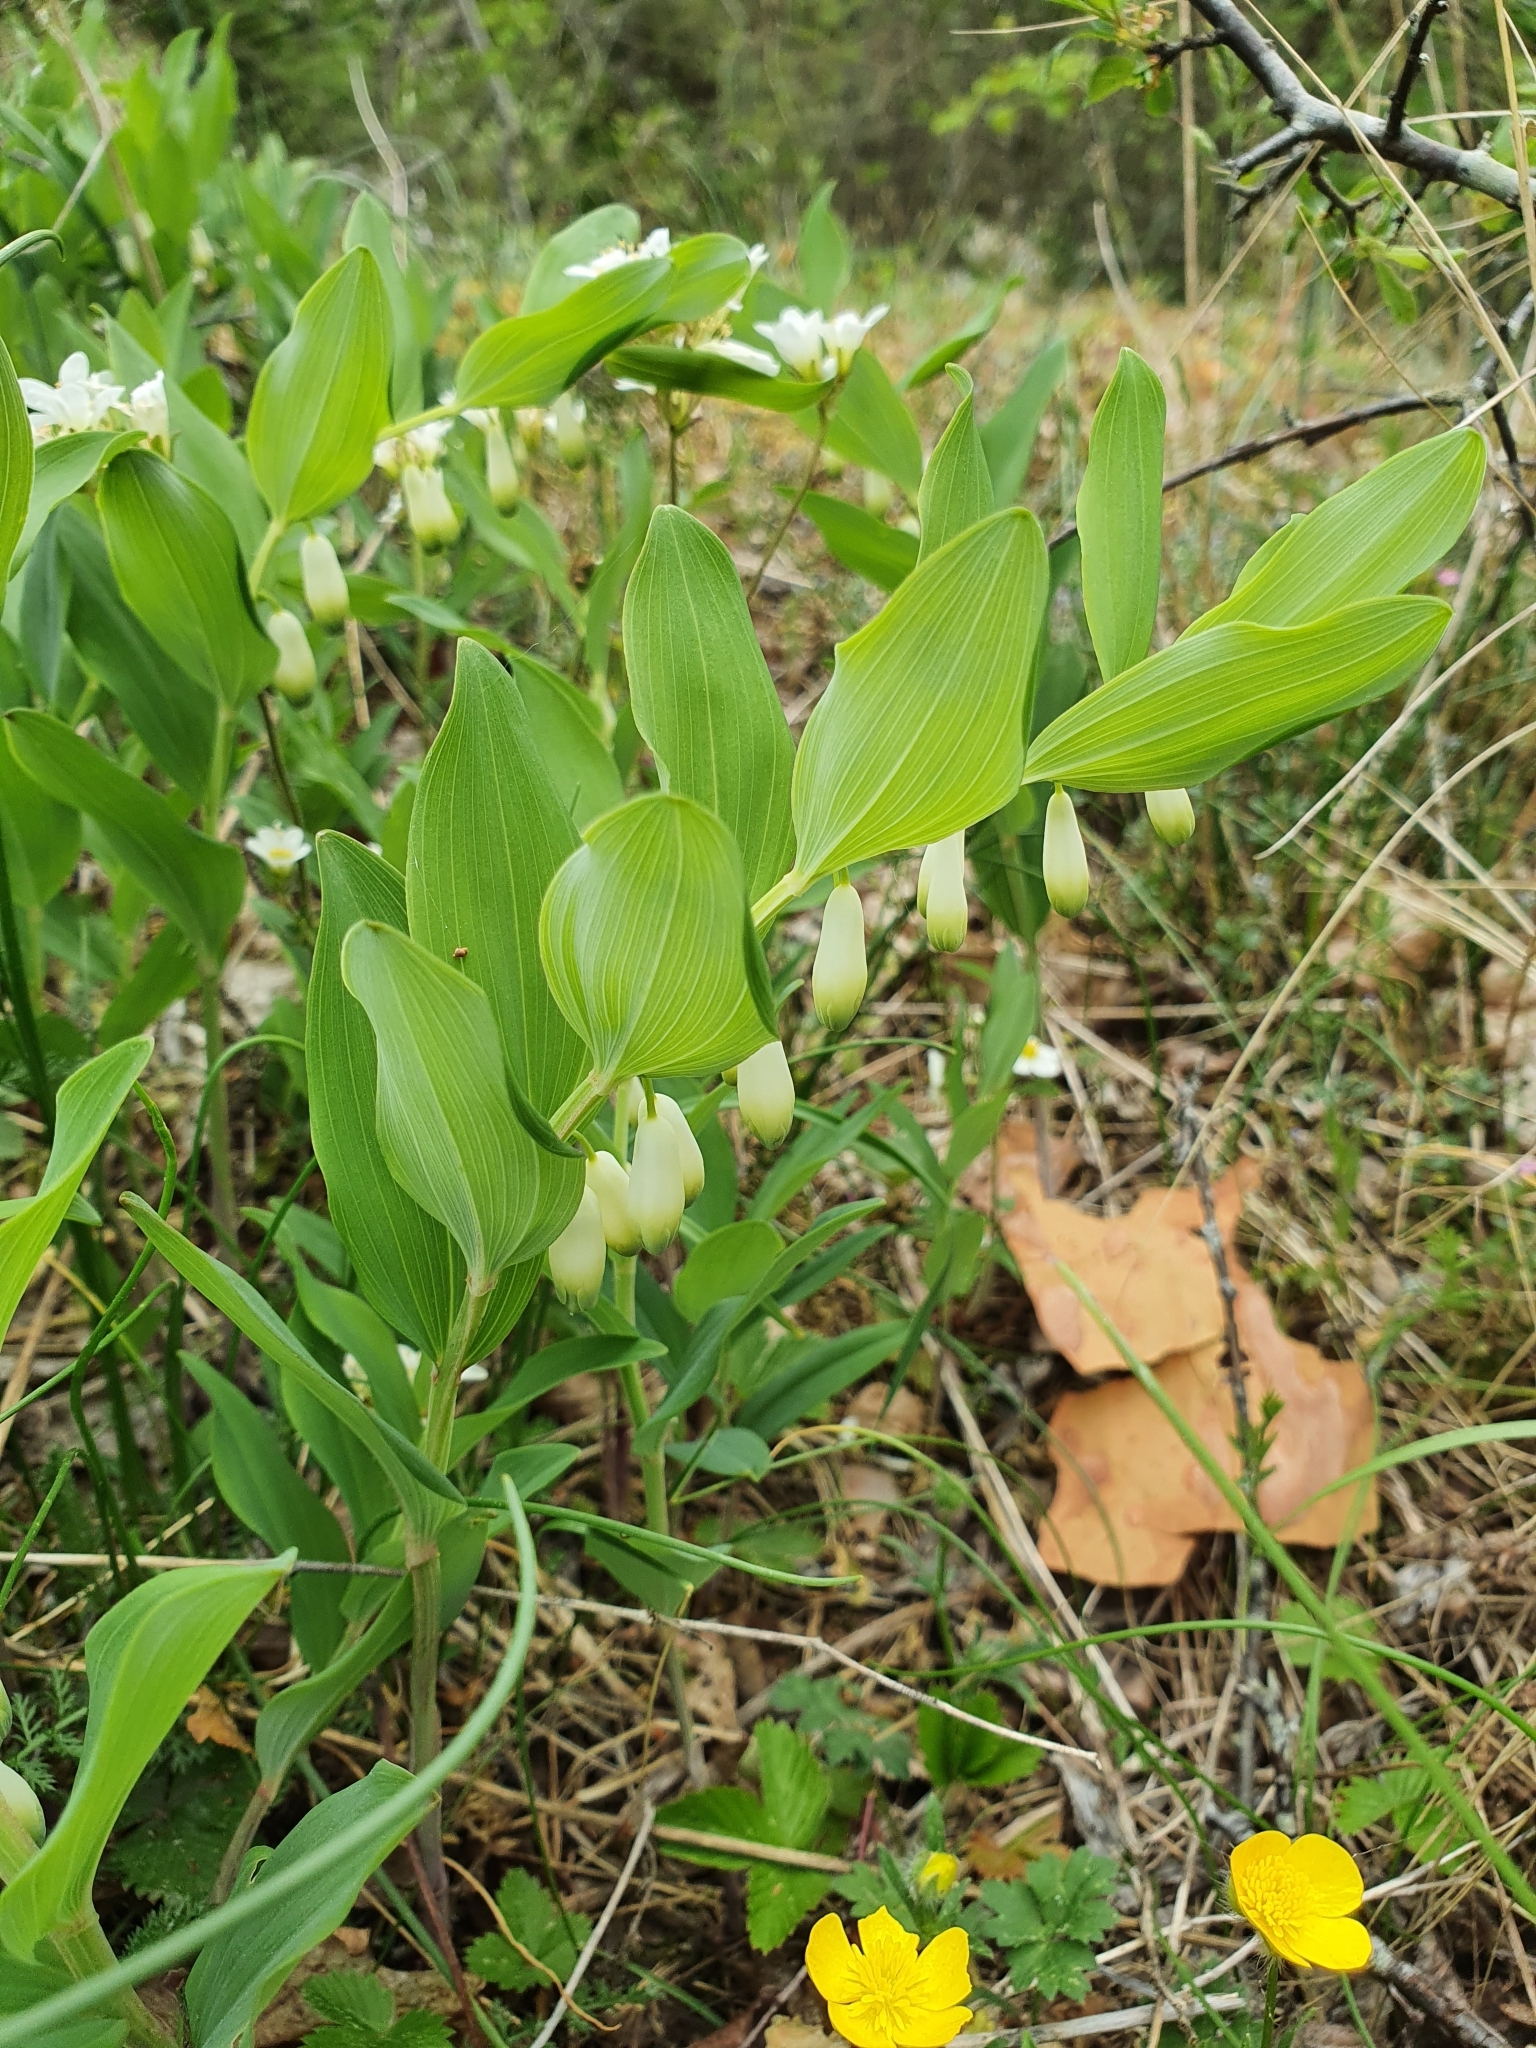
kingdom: Plantae
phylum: Tracheophyta
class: Liliopsida
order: Asparagales
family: Asparagaceae
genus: Polygonatum
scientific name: Polygonatum odoratum
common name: Angular solomon's-seal
